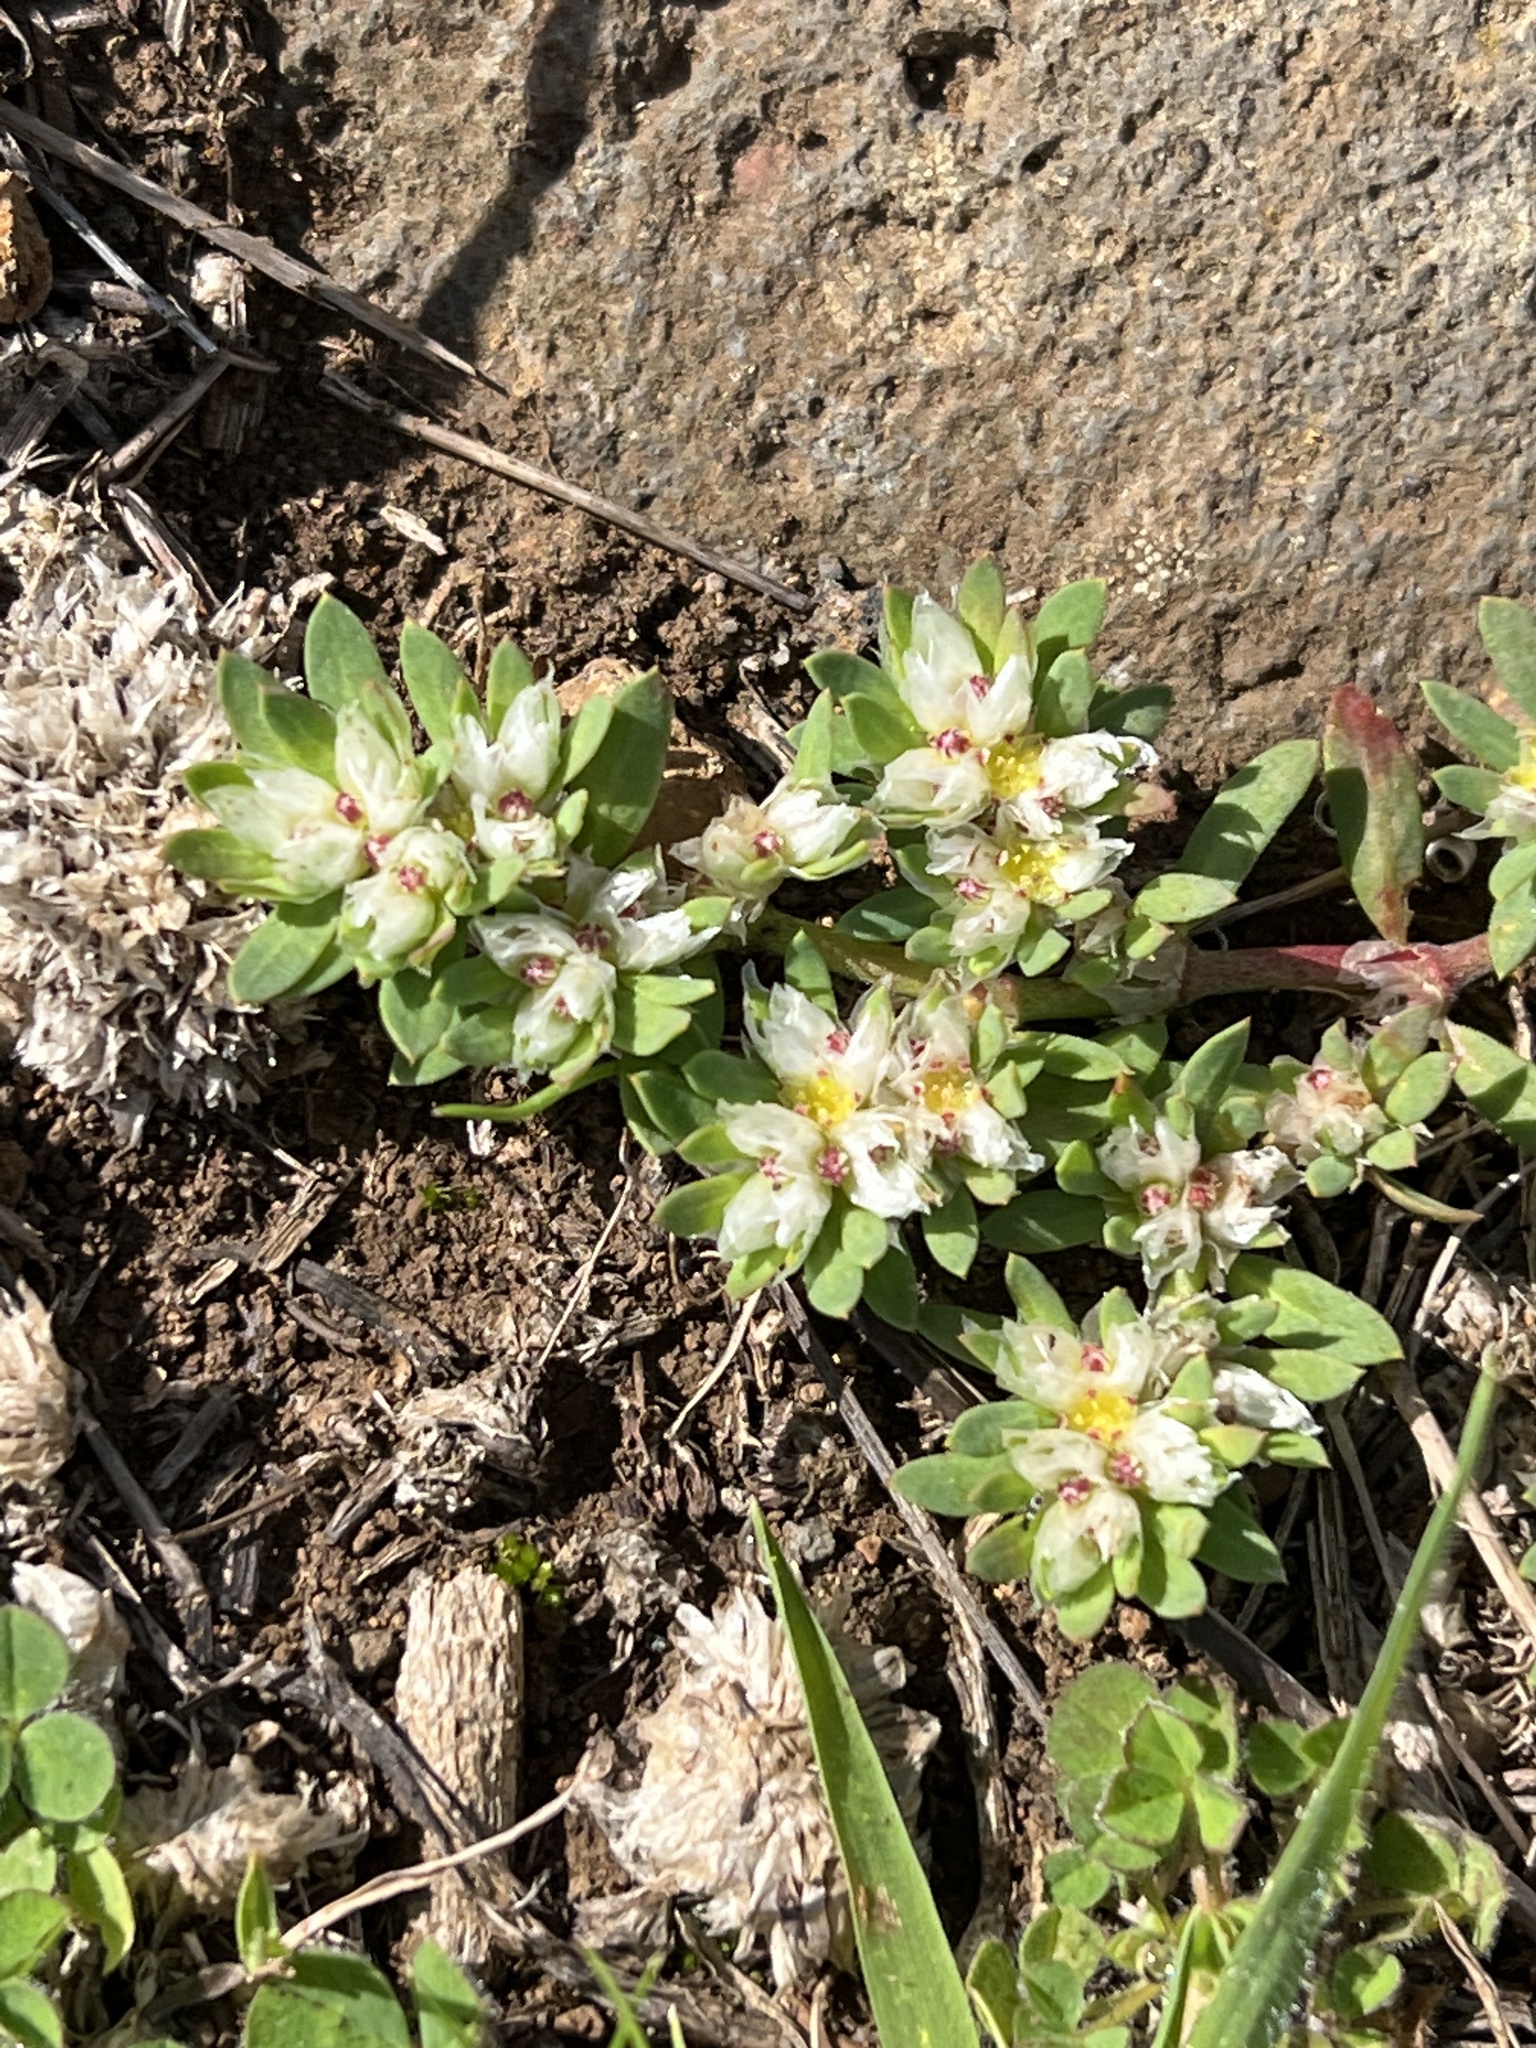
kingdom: Plantae
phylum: Tracheophyta
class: Magnoliopsida
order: Caryophyllales
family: Caryophyllaceae
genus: Paronychia
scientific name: Paronychia argentea
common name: Silver nailroot
